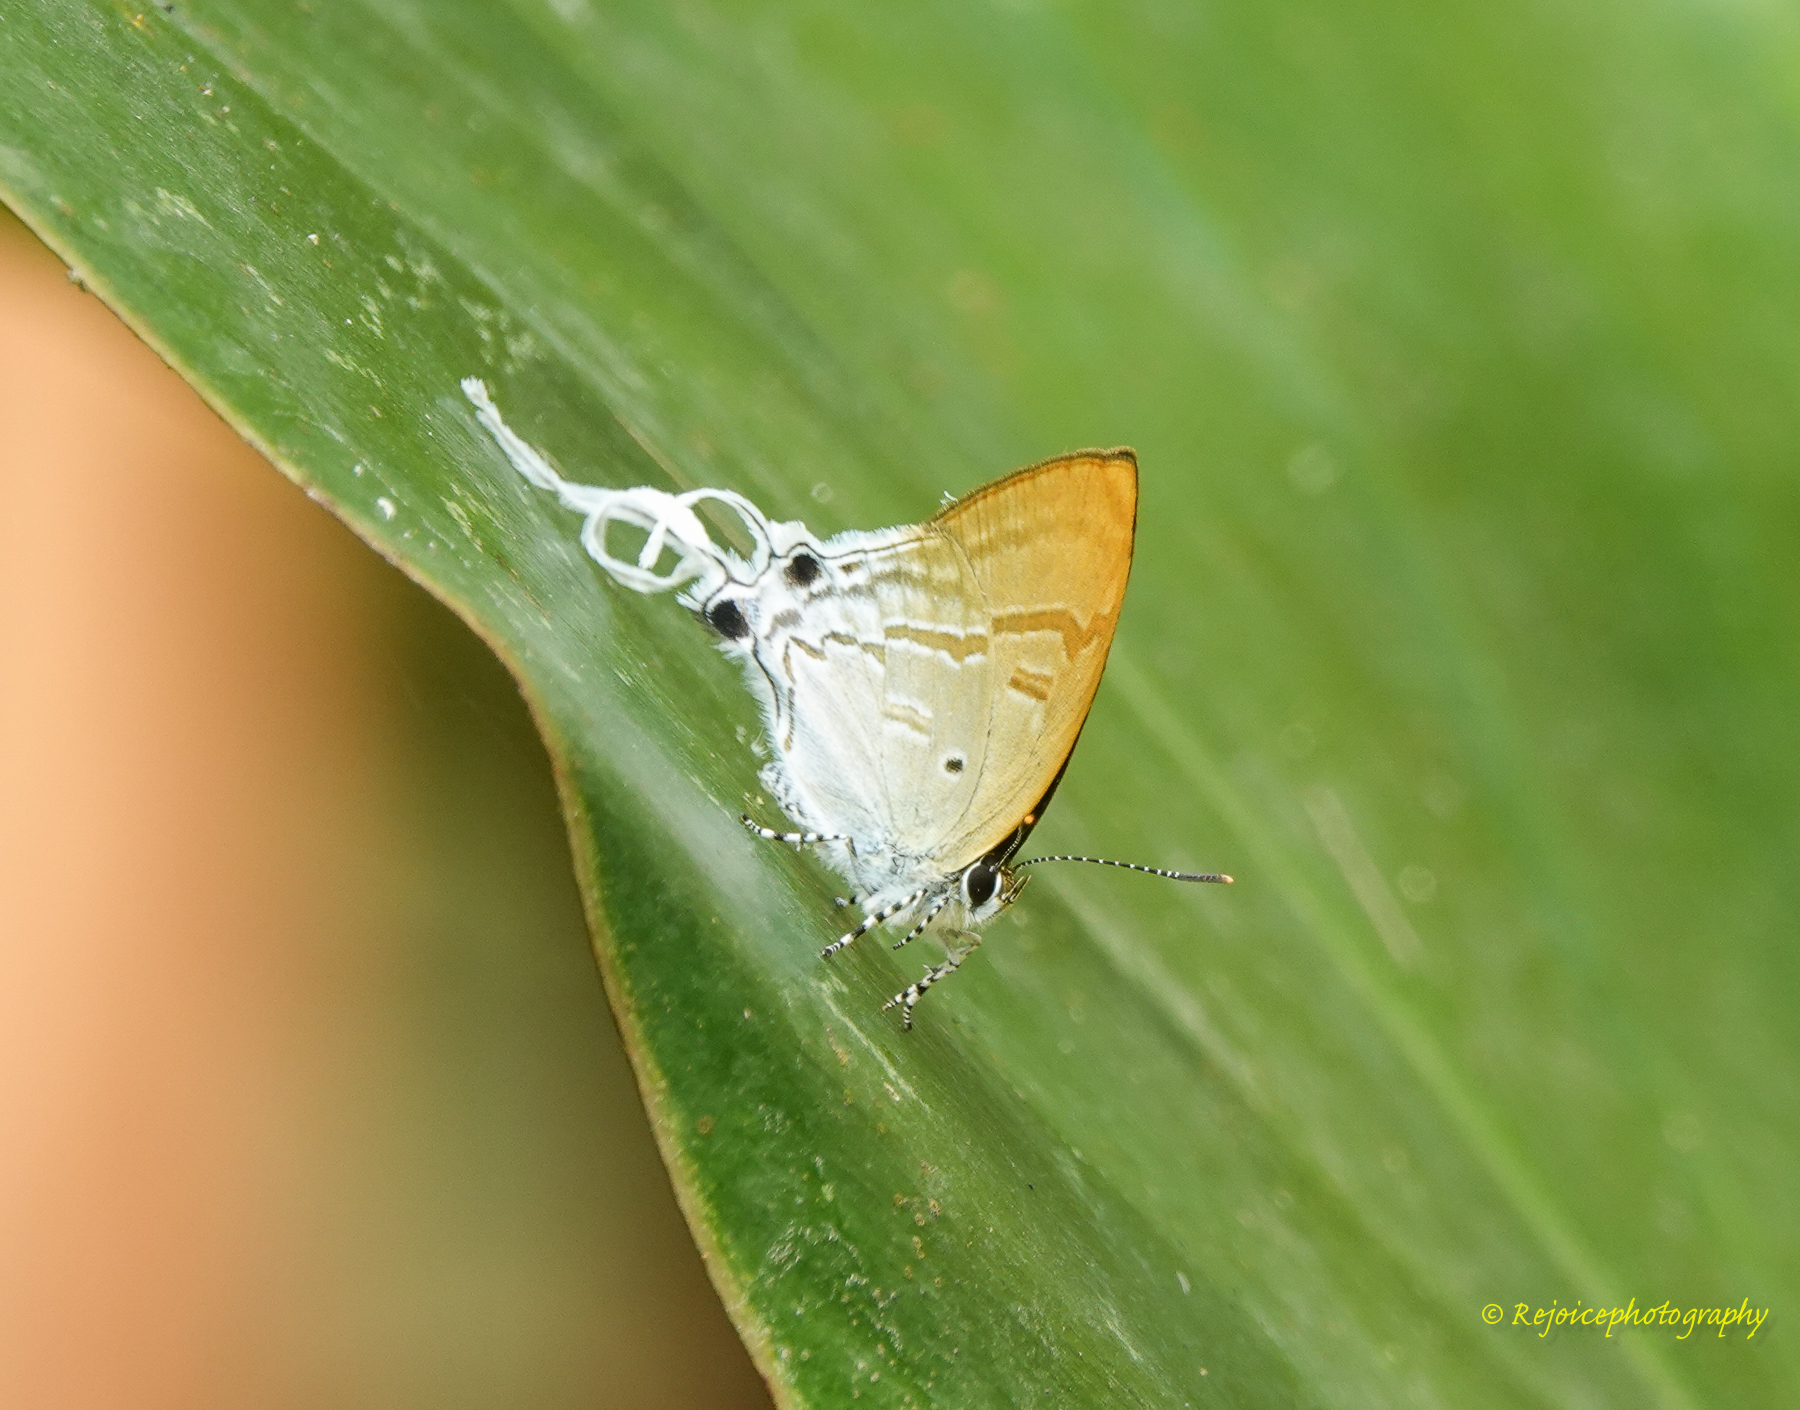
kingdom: Animalia
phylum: Arthropoda
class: Insecta
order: Lepidoptera
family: Lycaenidae
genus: Zeltus
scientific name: Zeltus amasa
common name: Fluffy tit
